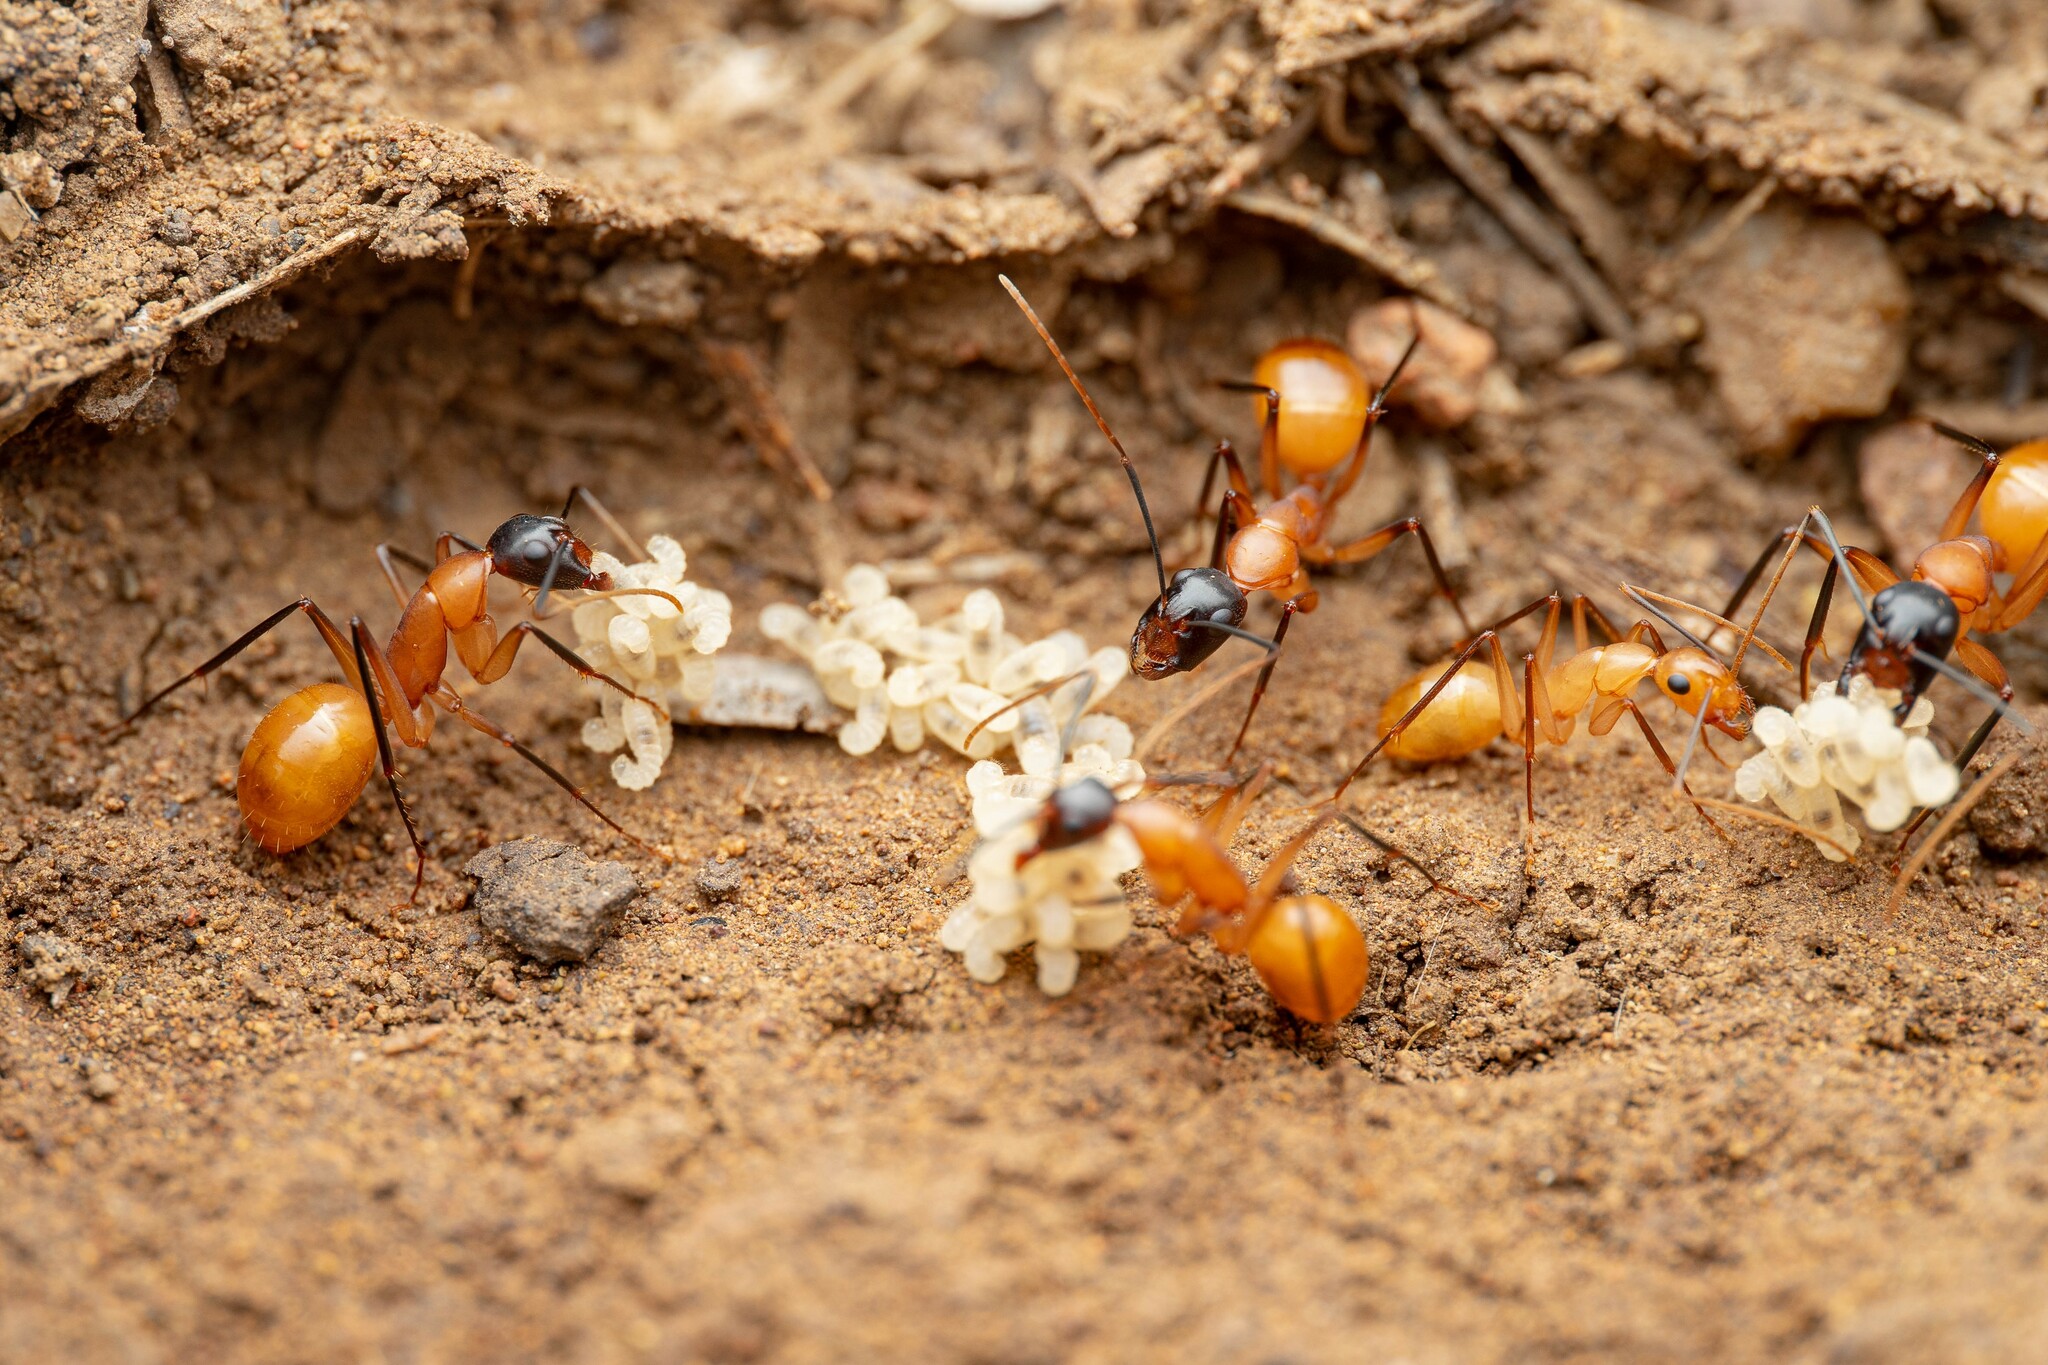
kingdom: Animalia
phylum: Arthropoda
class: Insecta
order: Hymenoptera
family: Formicidae
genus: Camponotus
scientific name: Camponotus ocreatus
